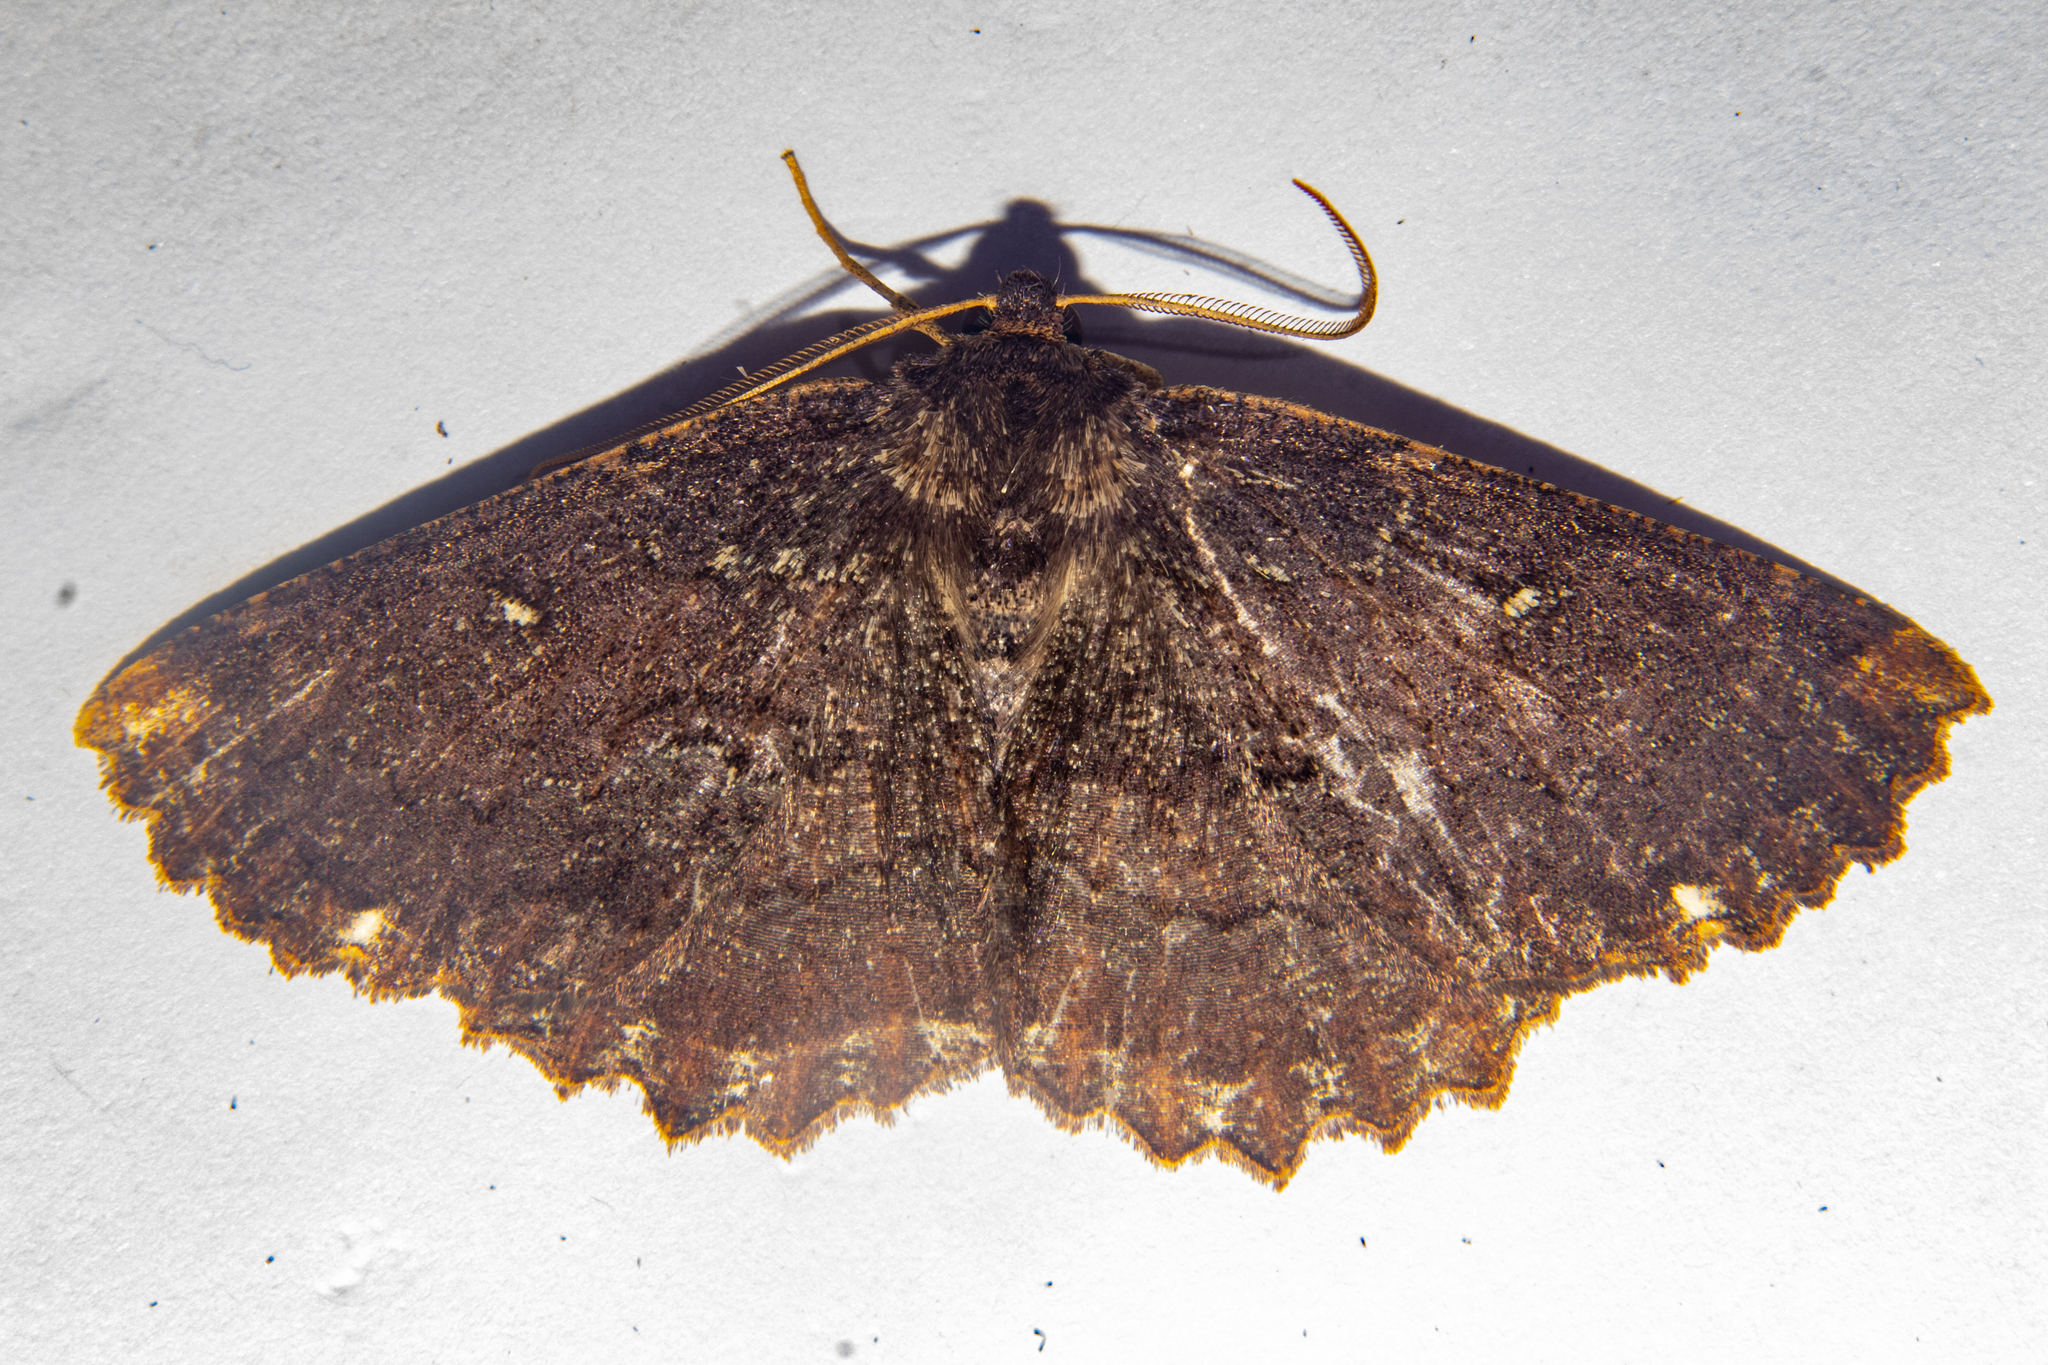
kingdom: Animalia
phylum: Arthropoda
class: Insecta
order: Lepidoptera
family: Geometridae
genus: Gellonia
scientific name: Gellonia dejectaria
